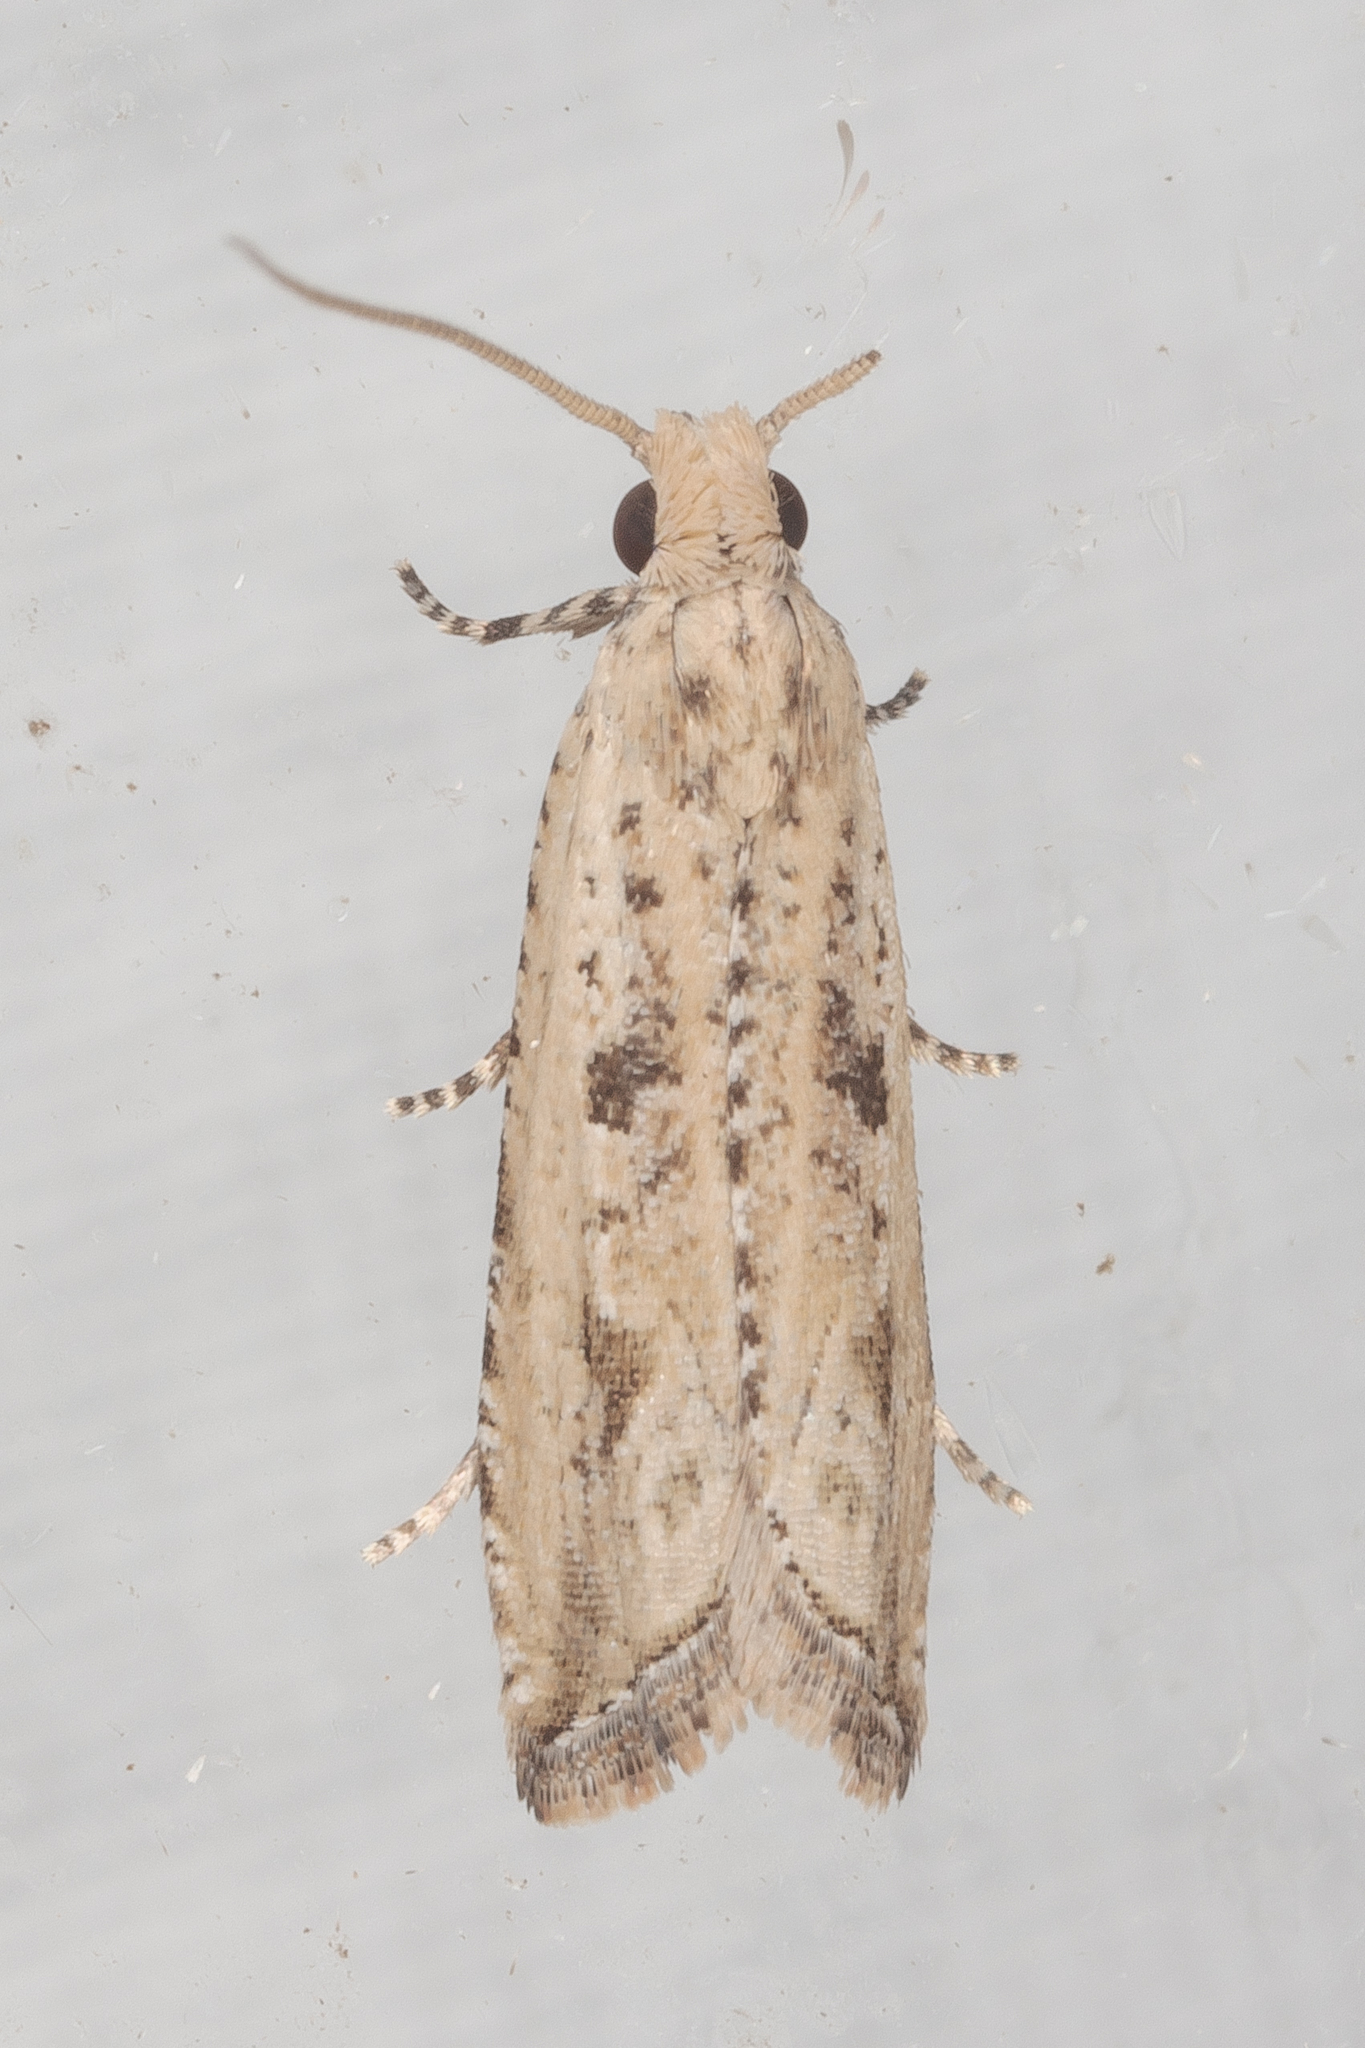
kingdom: Animalia
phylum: Arthropoda
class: Insecta
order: Lepidoptera
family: Tortricidae
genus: Bactra
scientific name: Bactra verutana
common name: Javelin moth
